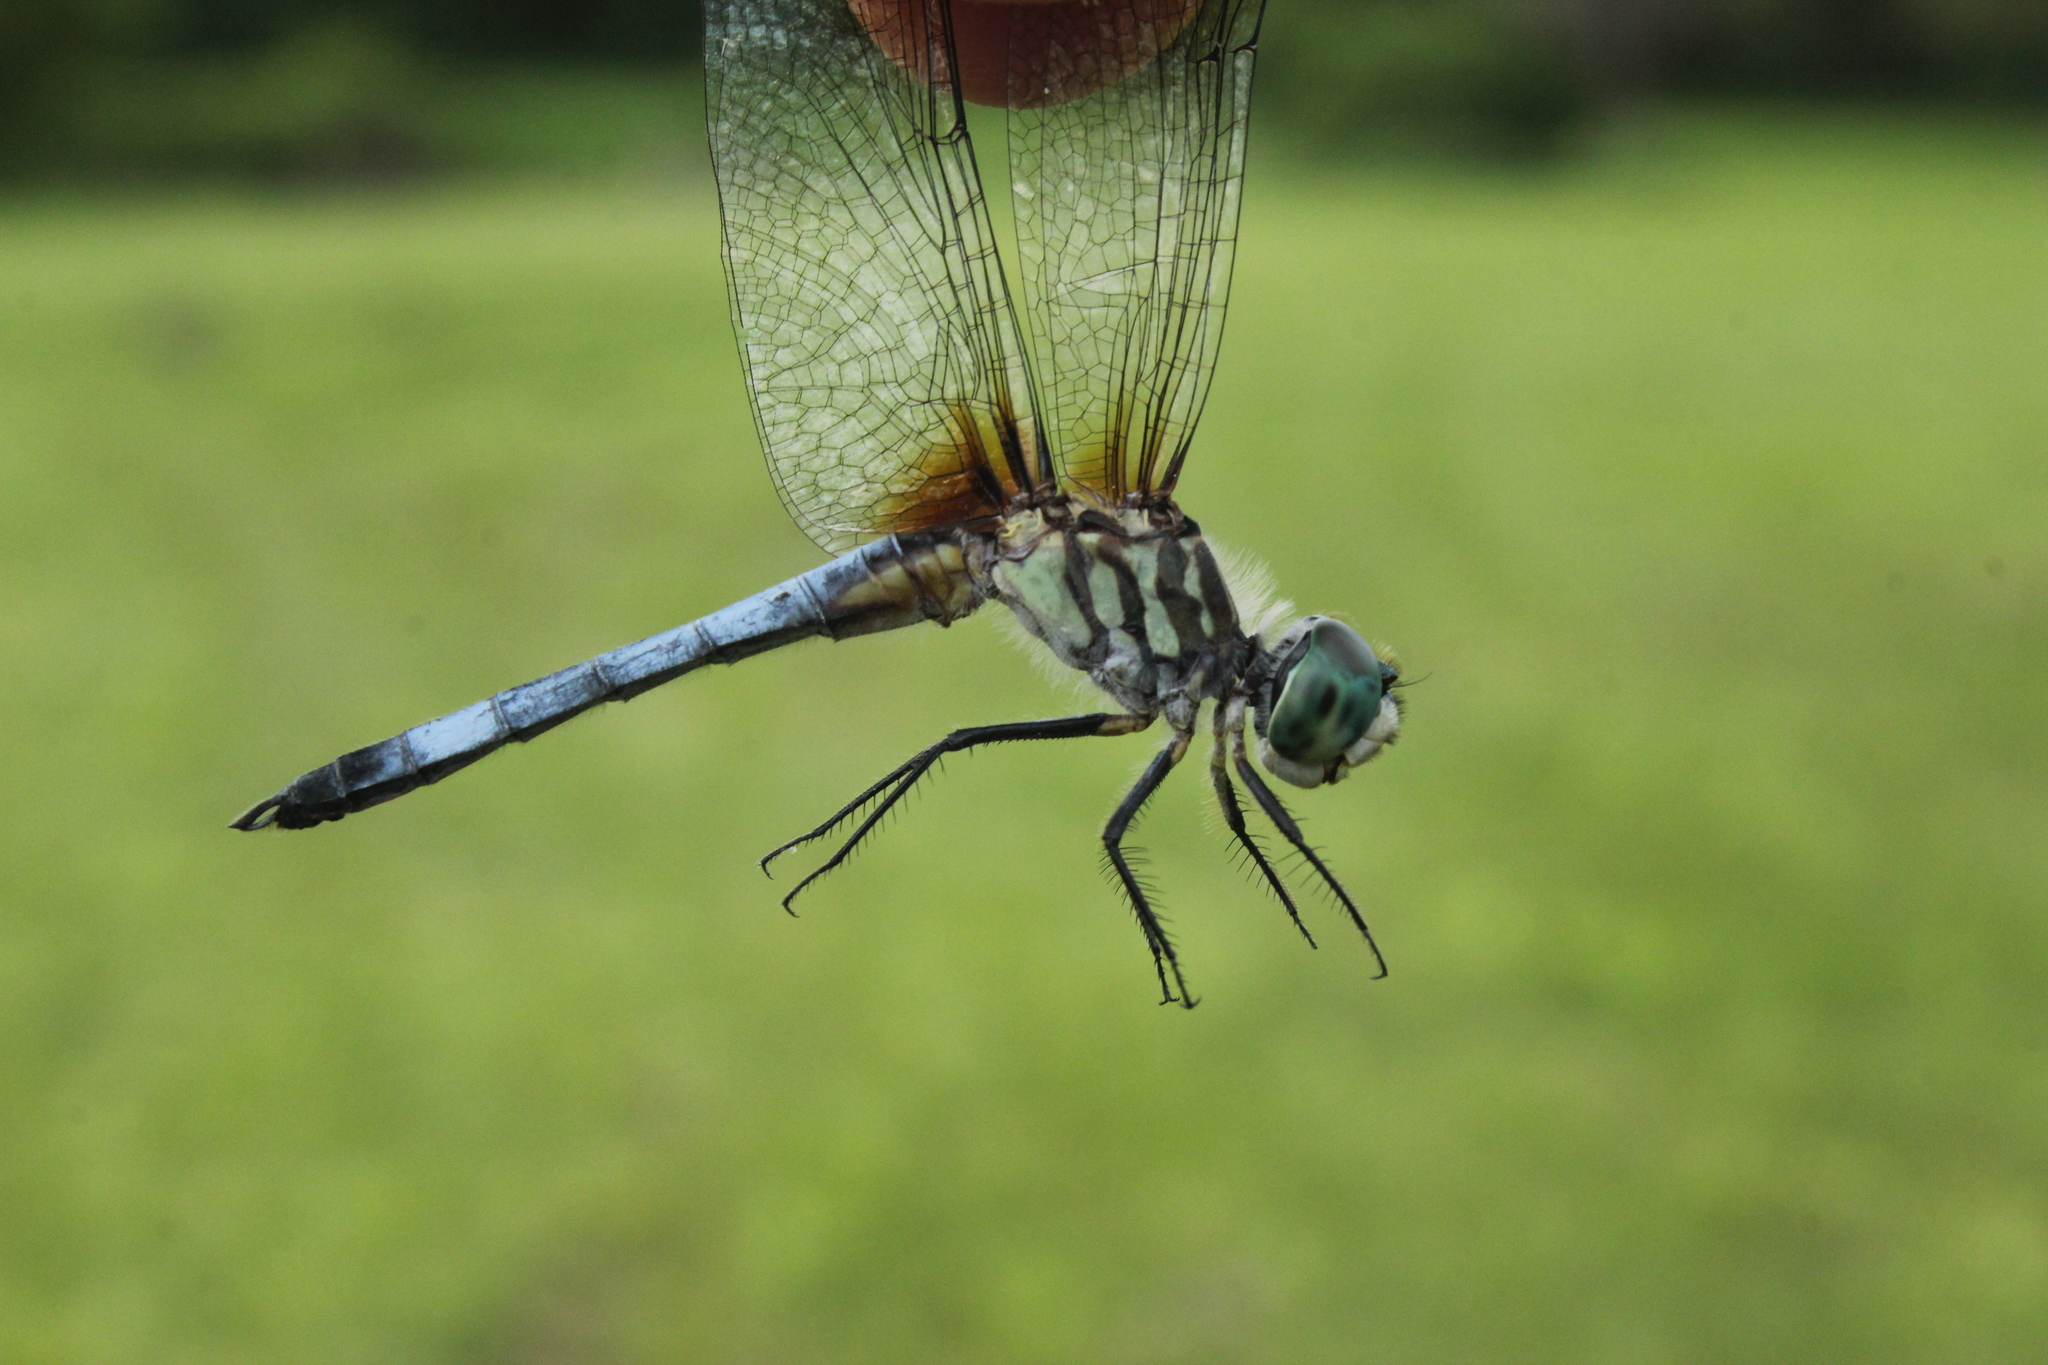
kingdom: Animalia
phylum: Arthropoda
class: Insecta
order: Odonata
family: Libellulidae
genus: Pachydiplax
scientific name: Pachydiplax longipennis
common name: Blue dasher
